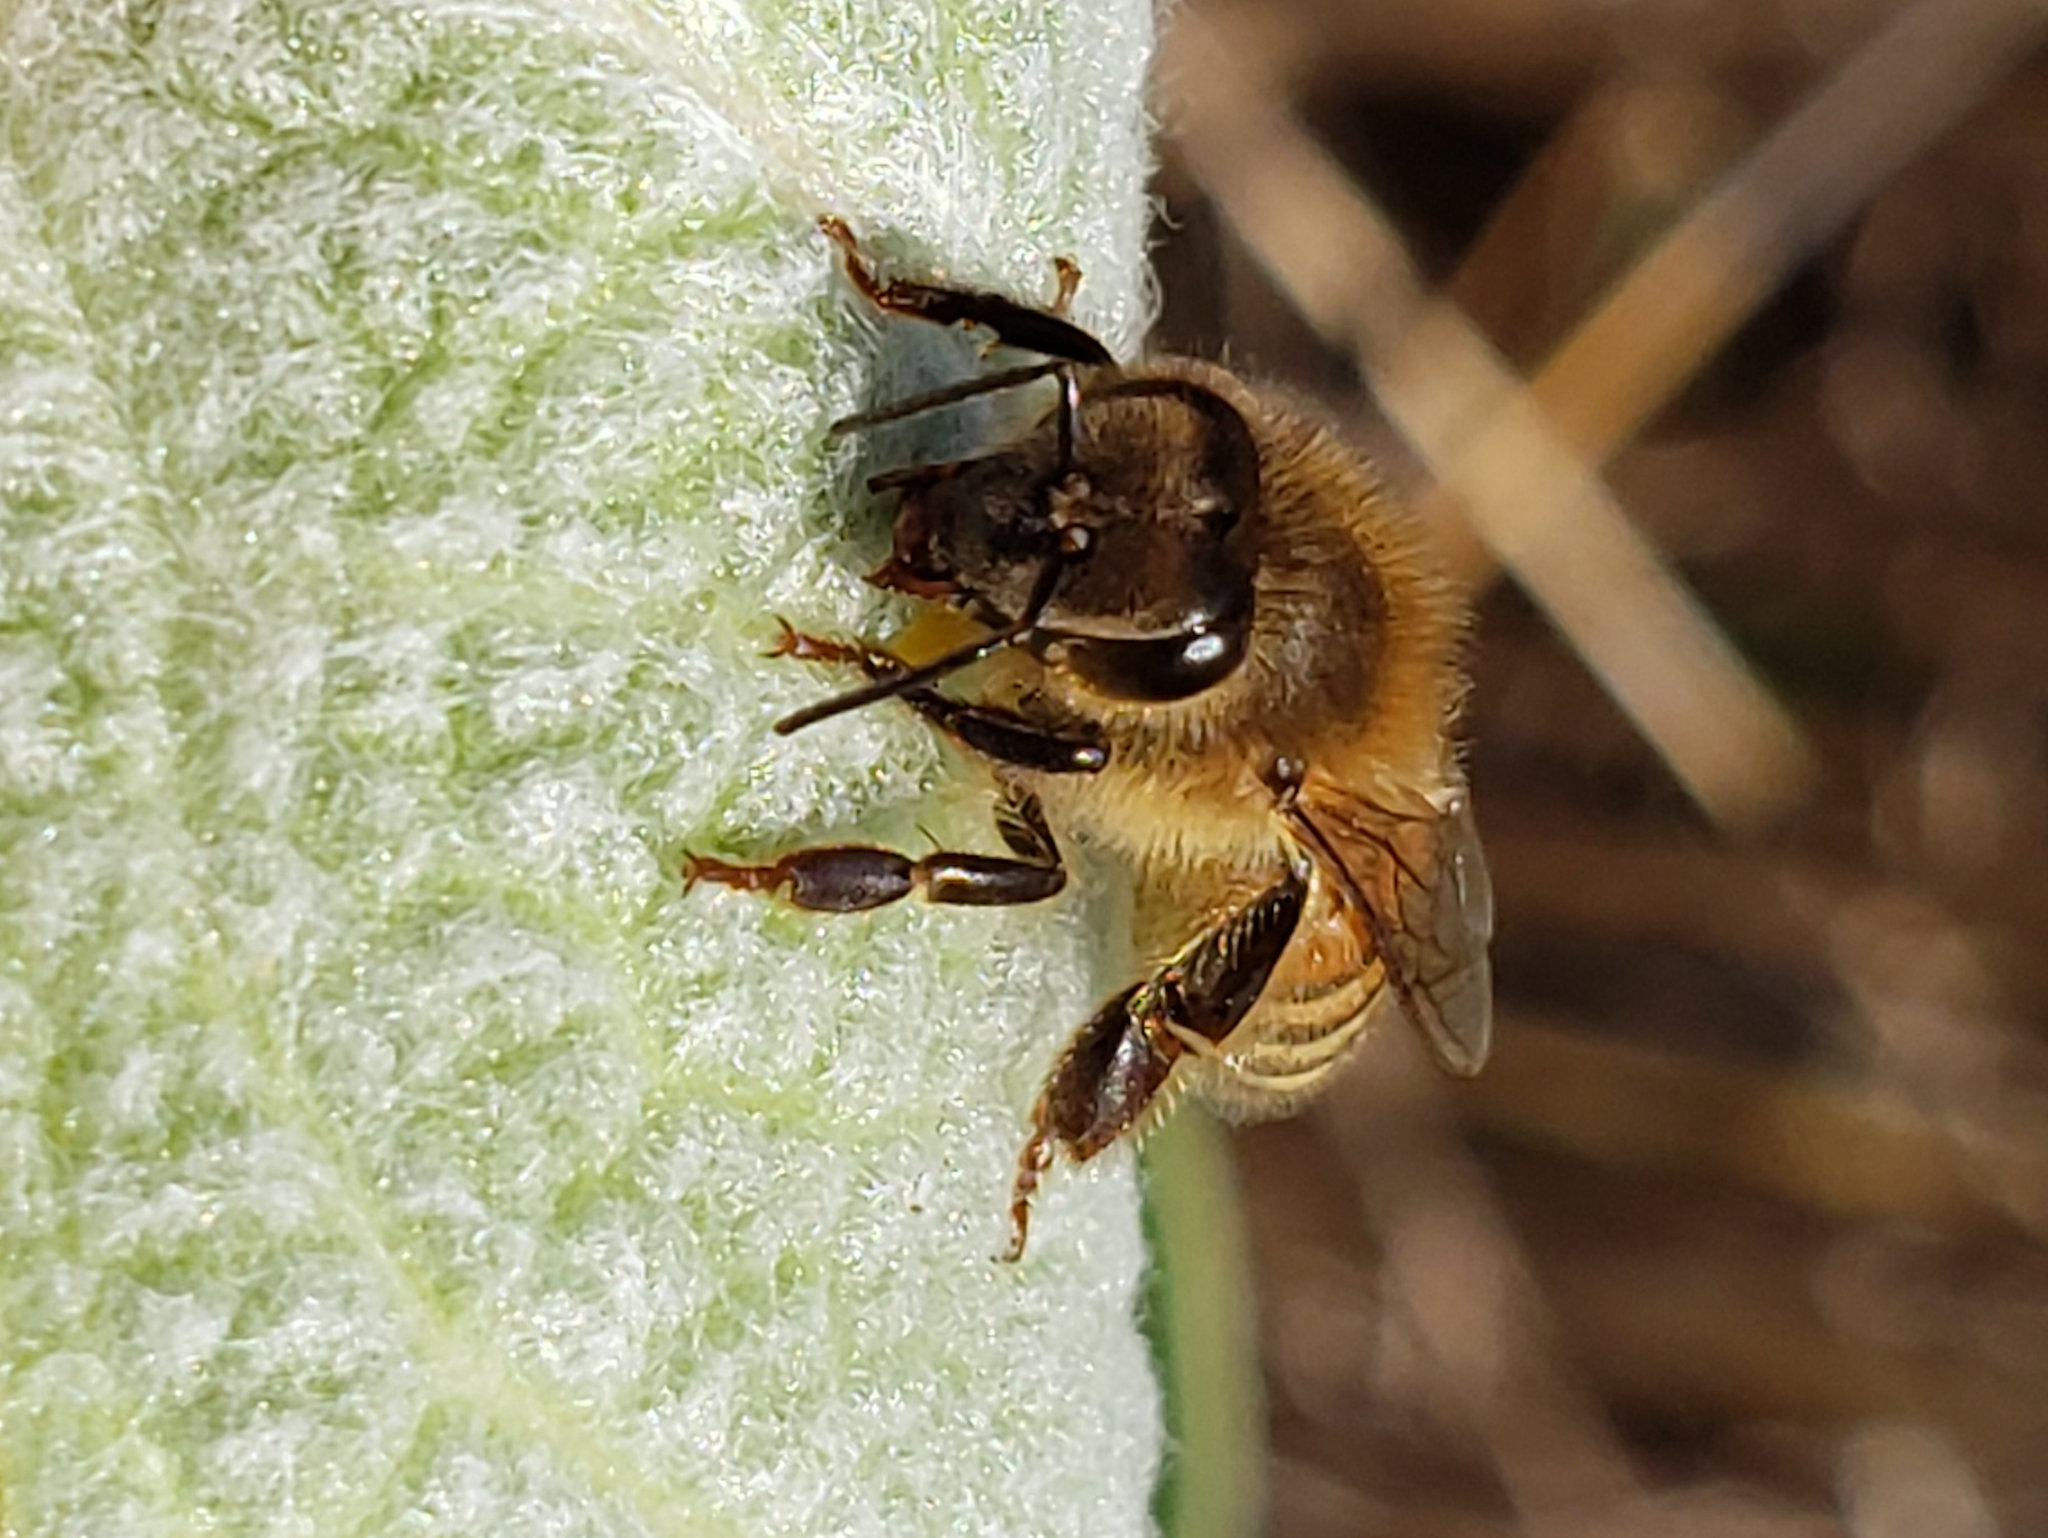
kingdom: Animalia
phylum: Arthropoda
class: Insecta
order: Hymenoptera
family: Apidae
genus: Apis
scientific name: Apis mellifera
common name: Honey bee
